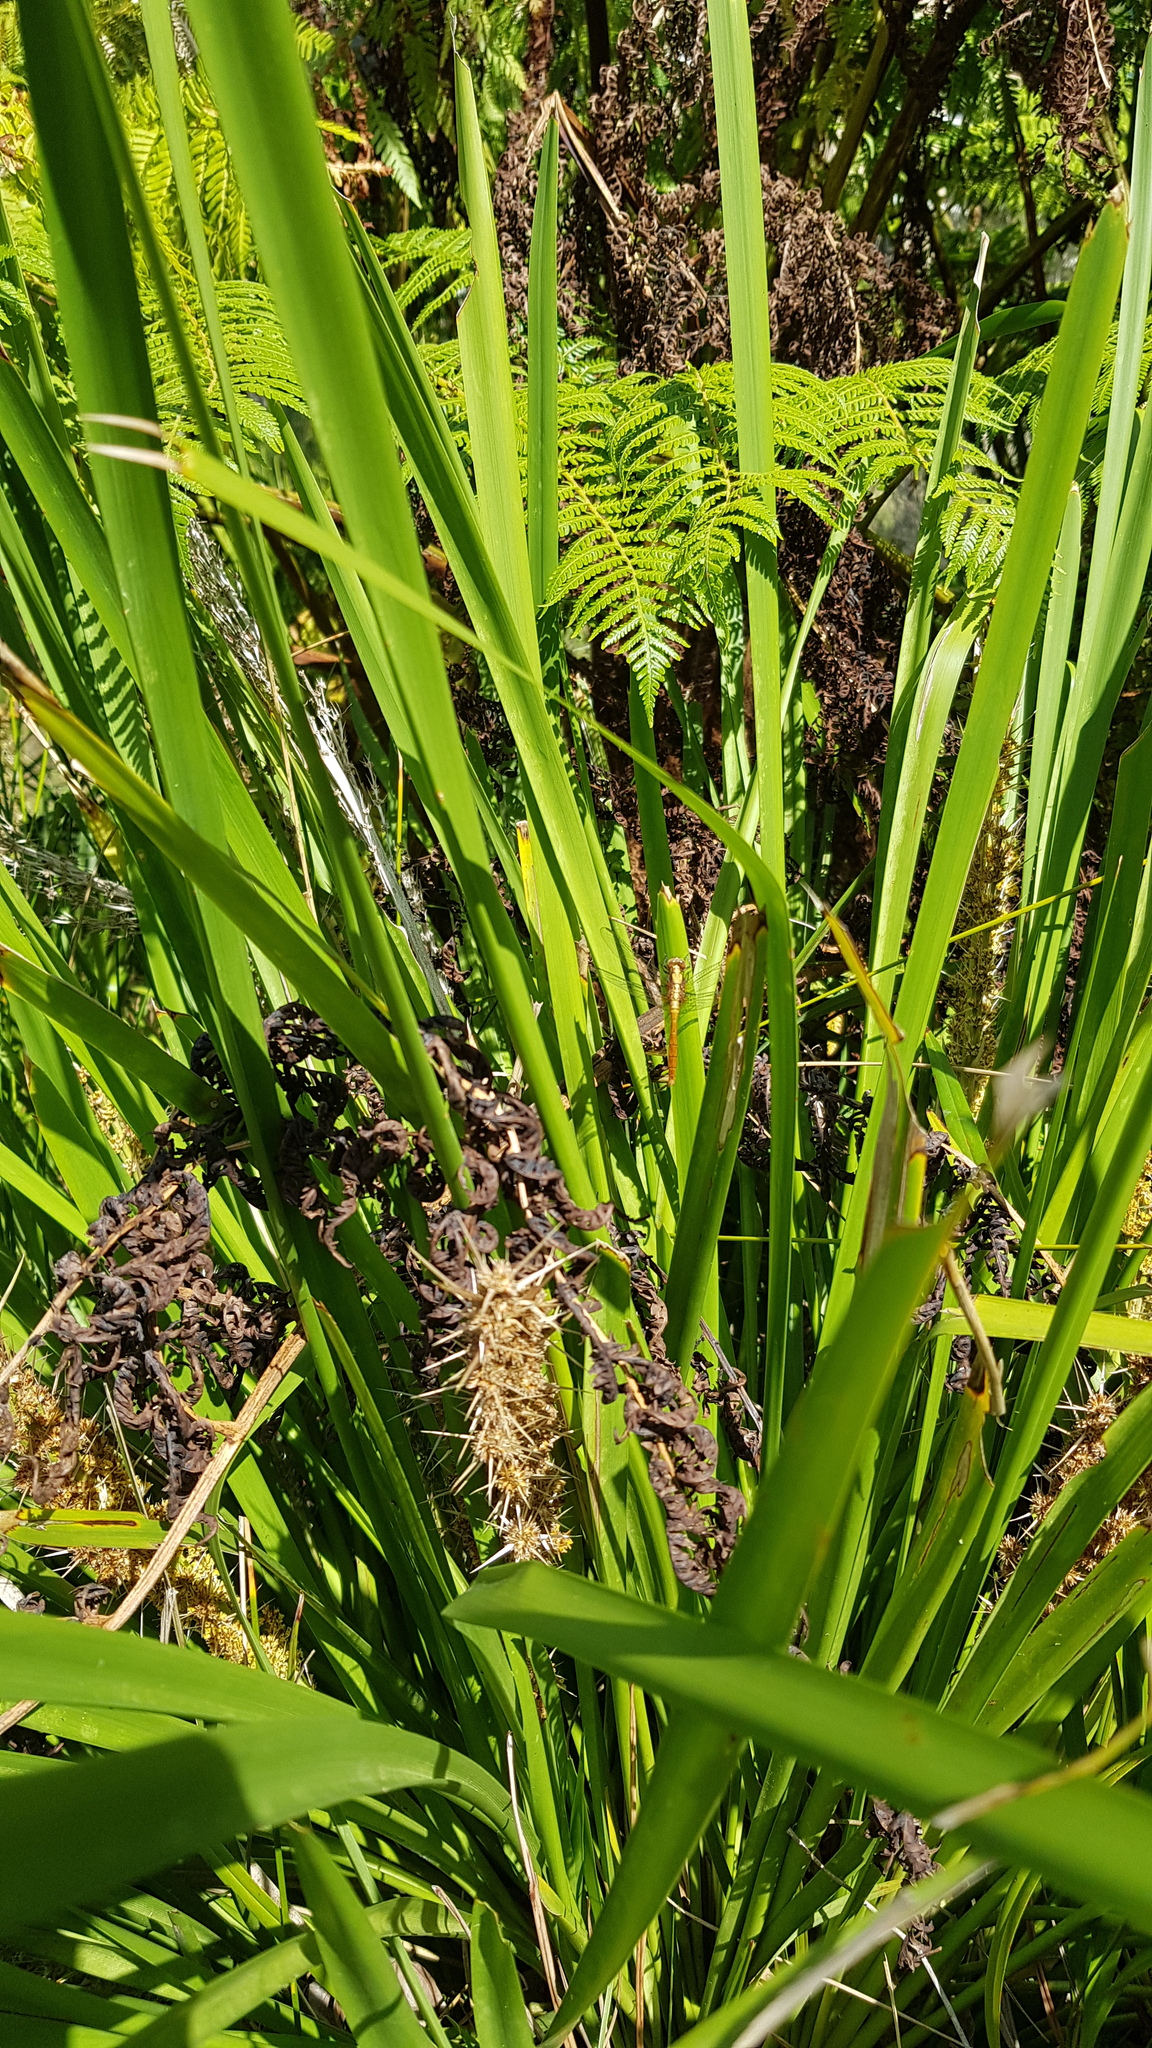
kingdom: Animalia
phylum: Arthropoda
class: Insecta
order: Odonata
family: Libellulidae
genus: Orthetrum
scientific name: Orthetrum villosovittatum
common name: Firery skimmer
